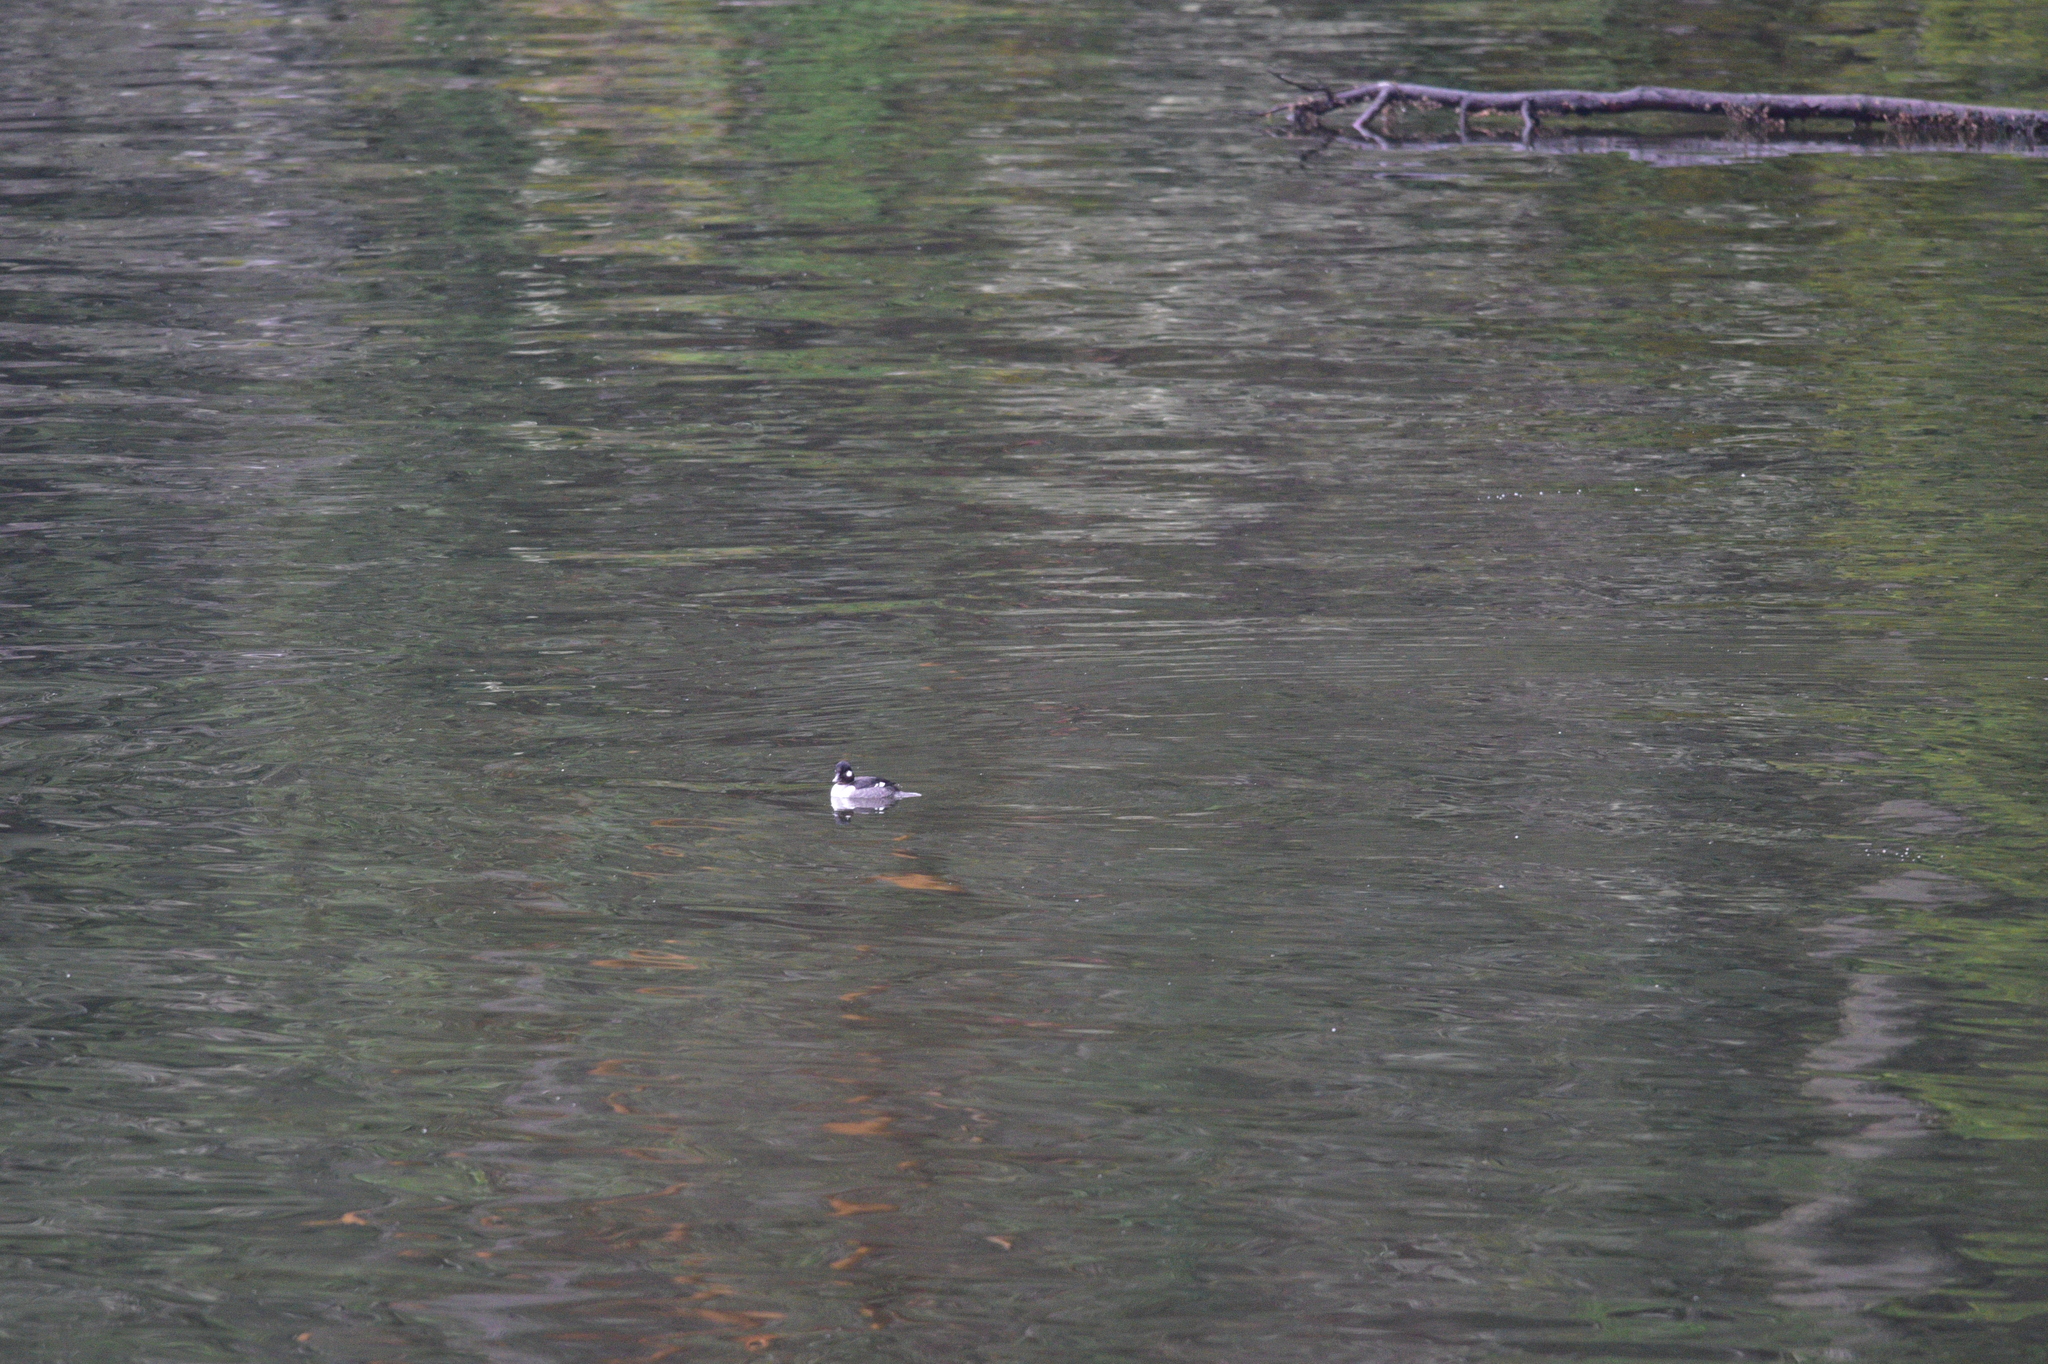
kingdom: Animalia
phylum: Chordata
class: Aves
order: Anseriformes
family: Anatidae
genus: Bucephala
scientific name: Bucephala albeola
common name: Bufflehead
